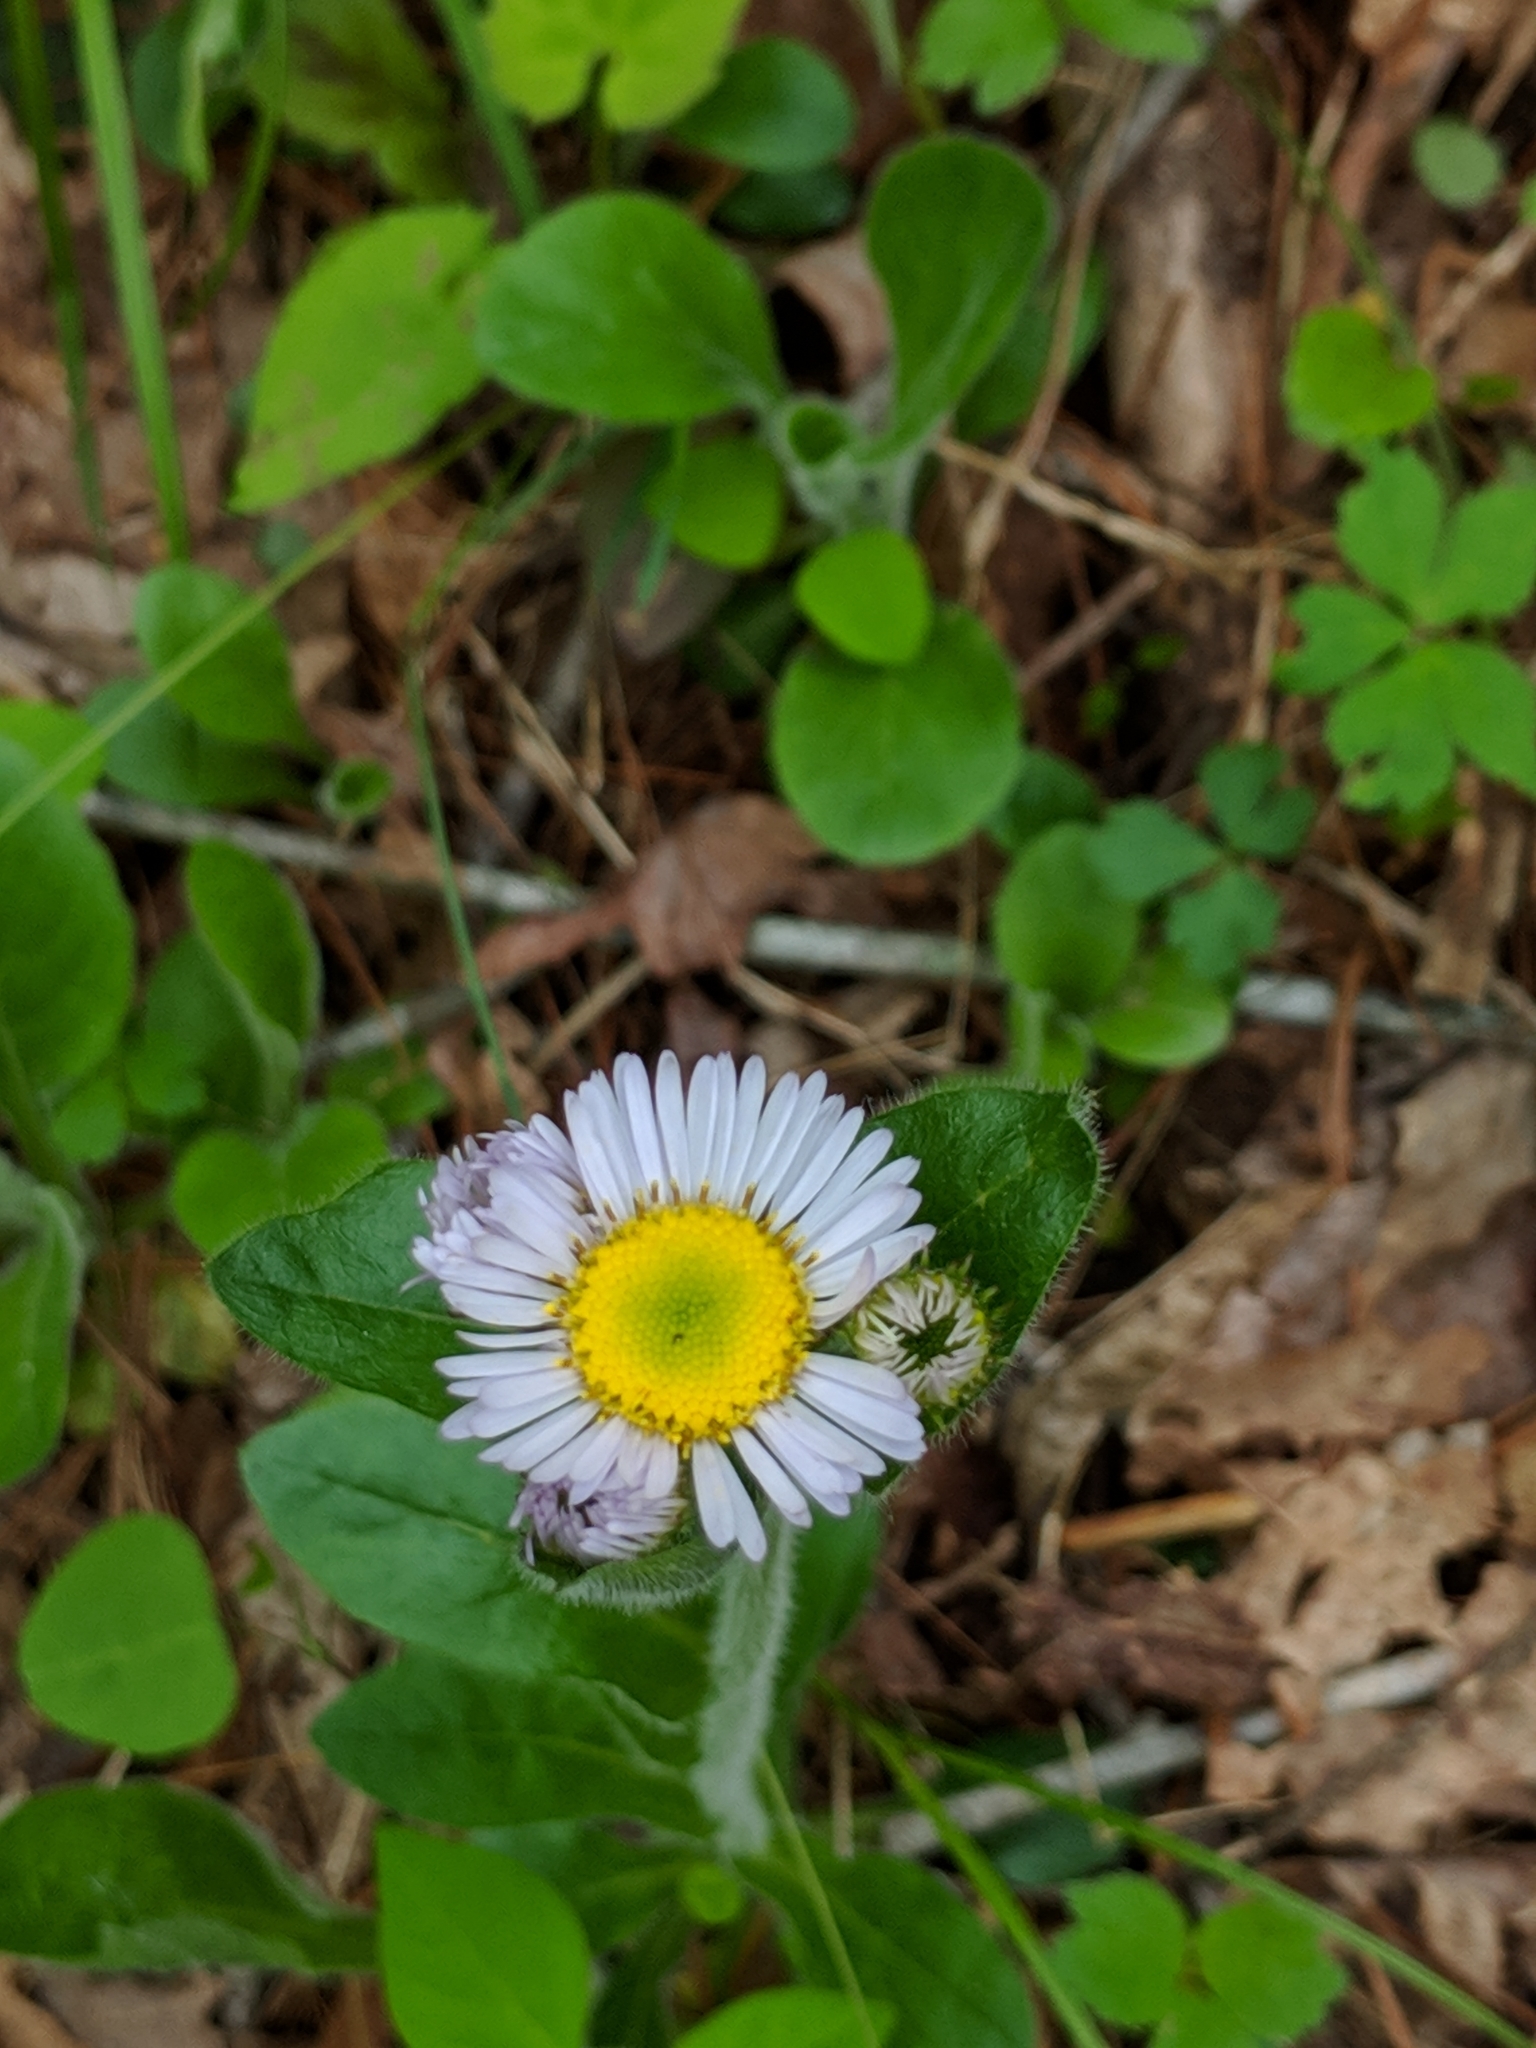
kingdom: Plantae
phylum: Tracheophyta
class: Magnoliopsida
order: Asterales
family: Asteraceae
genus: Erigeron
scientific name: Erigeron pulchellus
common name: Hairy fleabane
